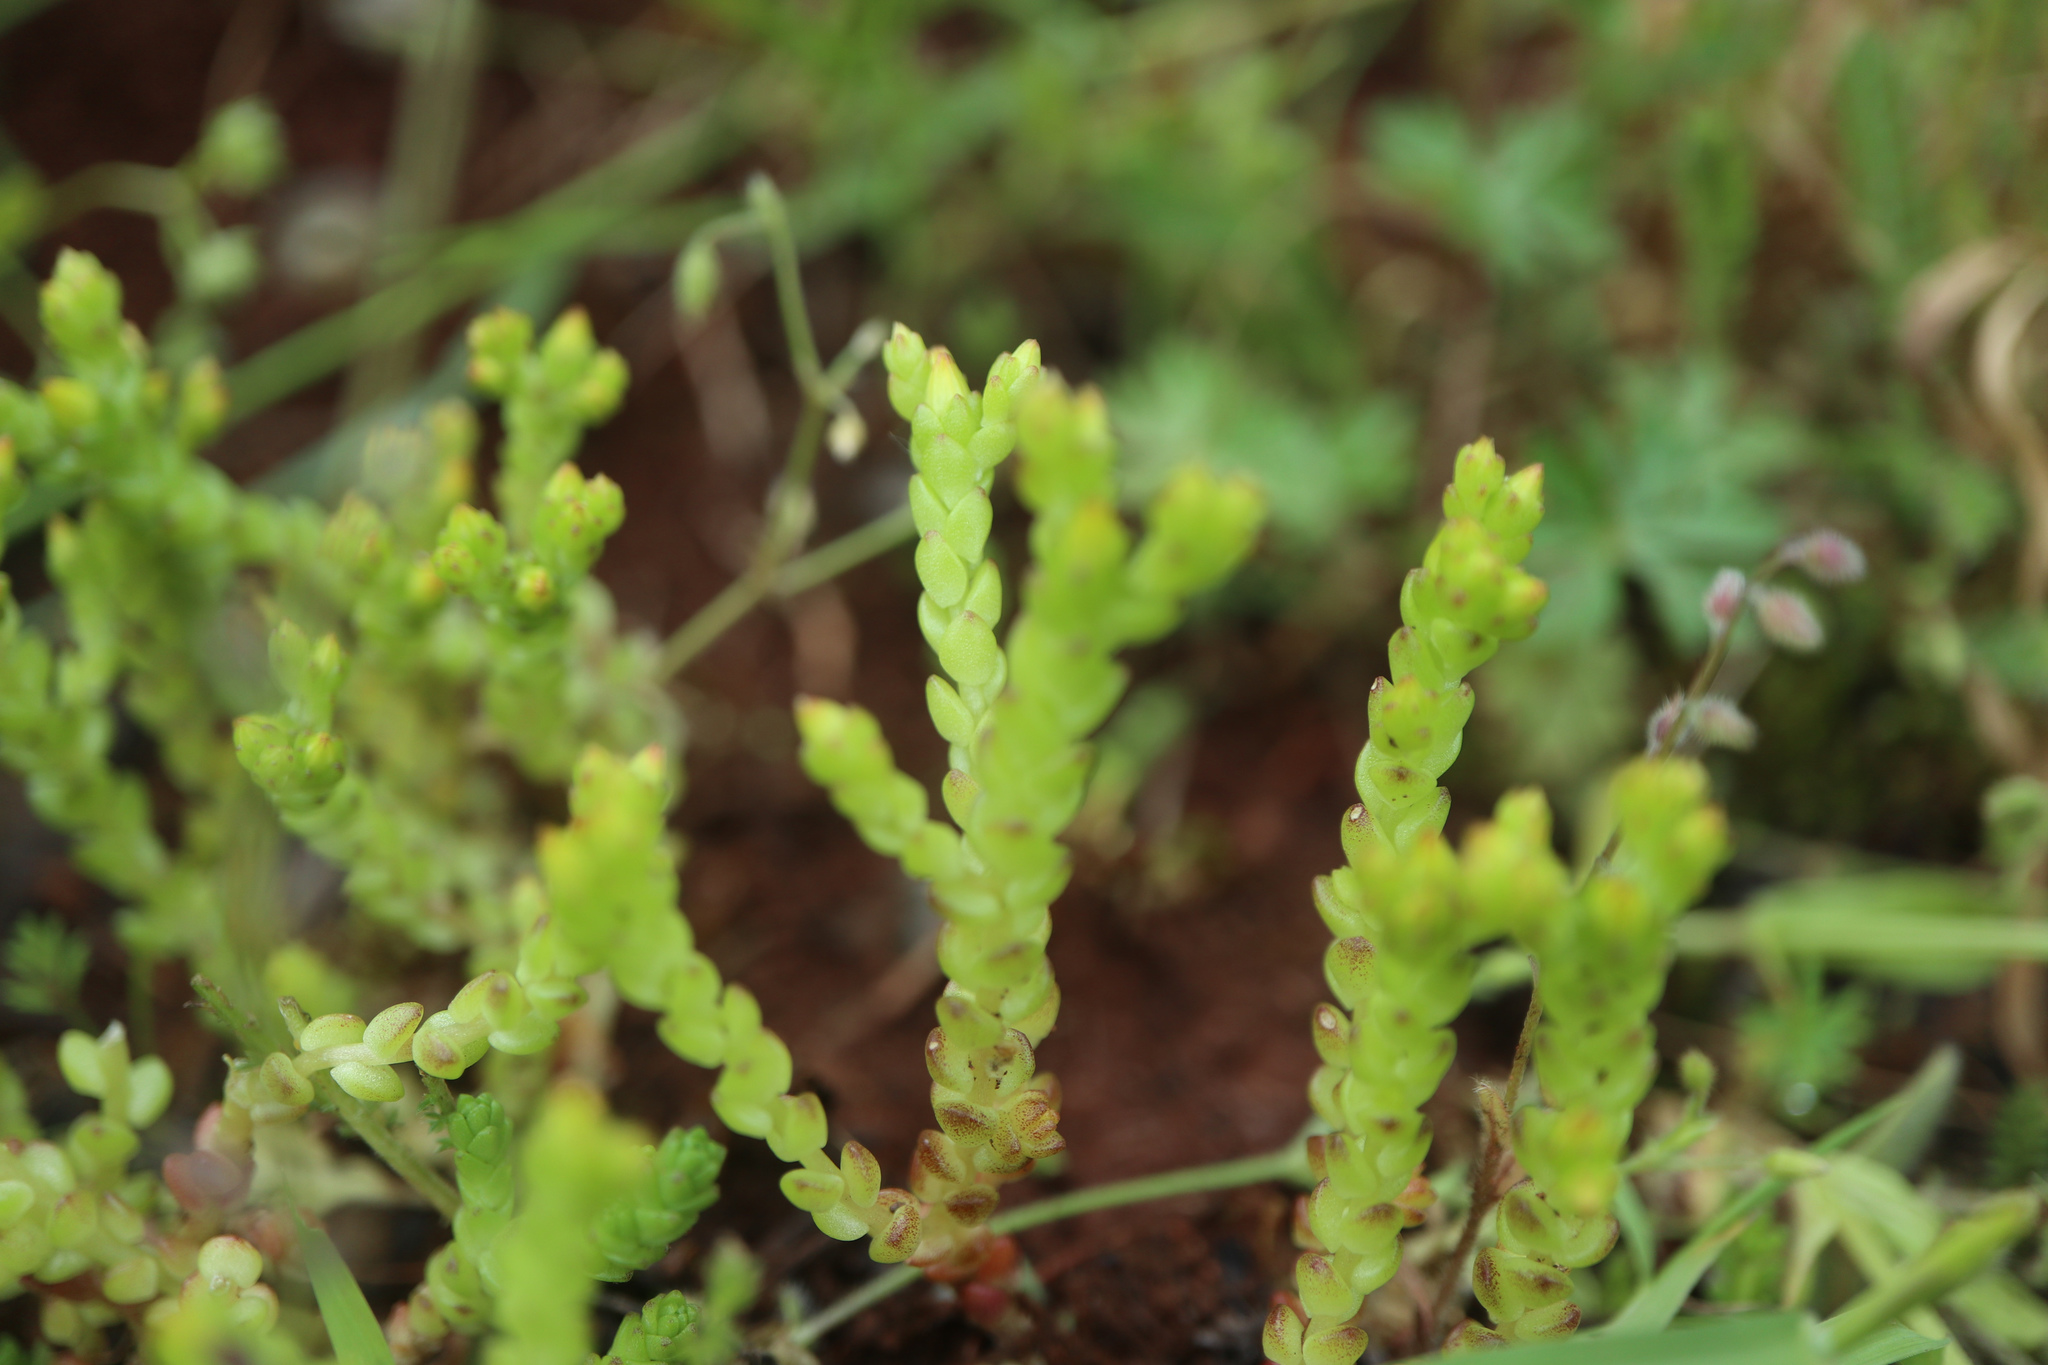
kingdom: Plantae
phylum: Tracheophyta
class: Magnoliopsida
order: Saxifragales
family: Crassulaceae
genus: Sedum
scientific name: Sedum acre
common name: Biting stonecrop
